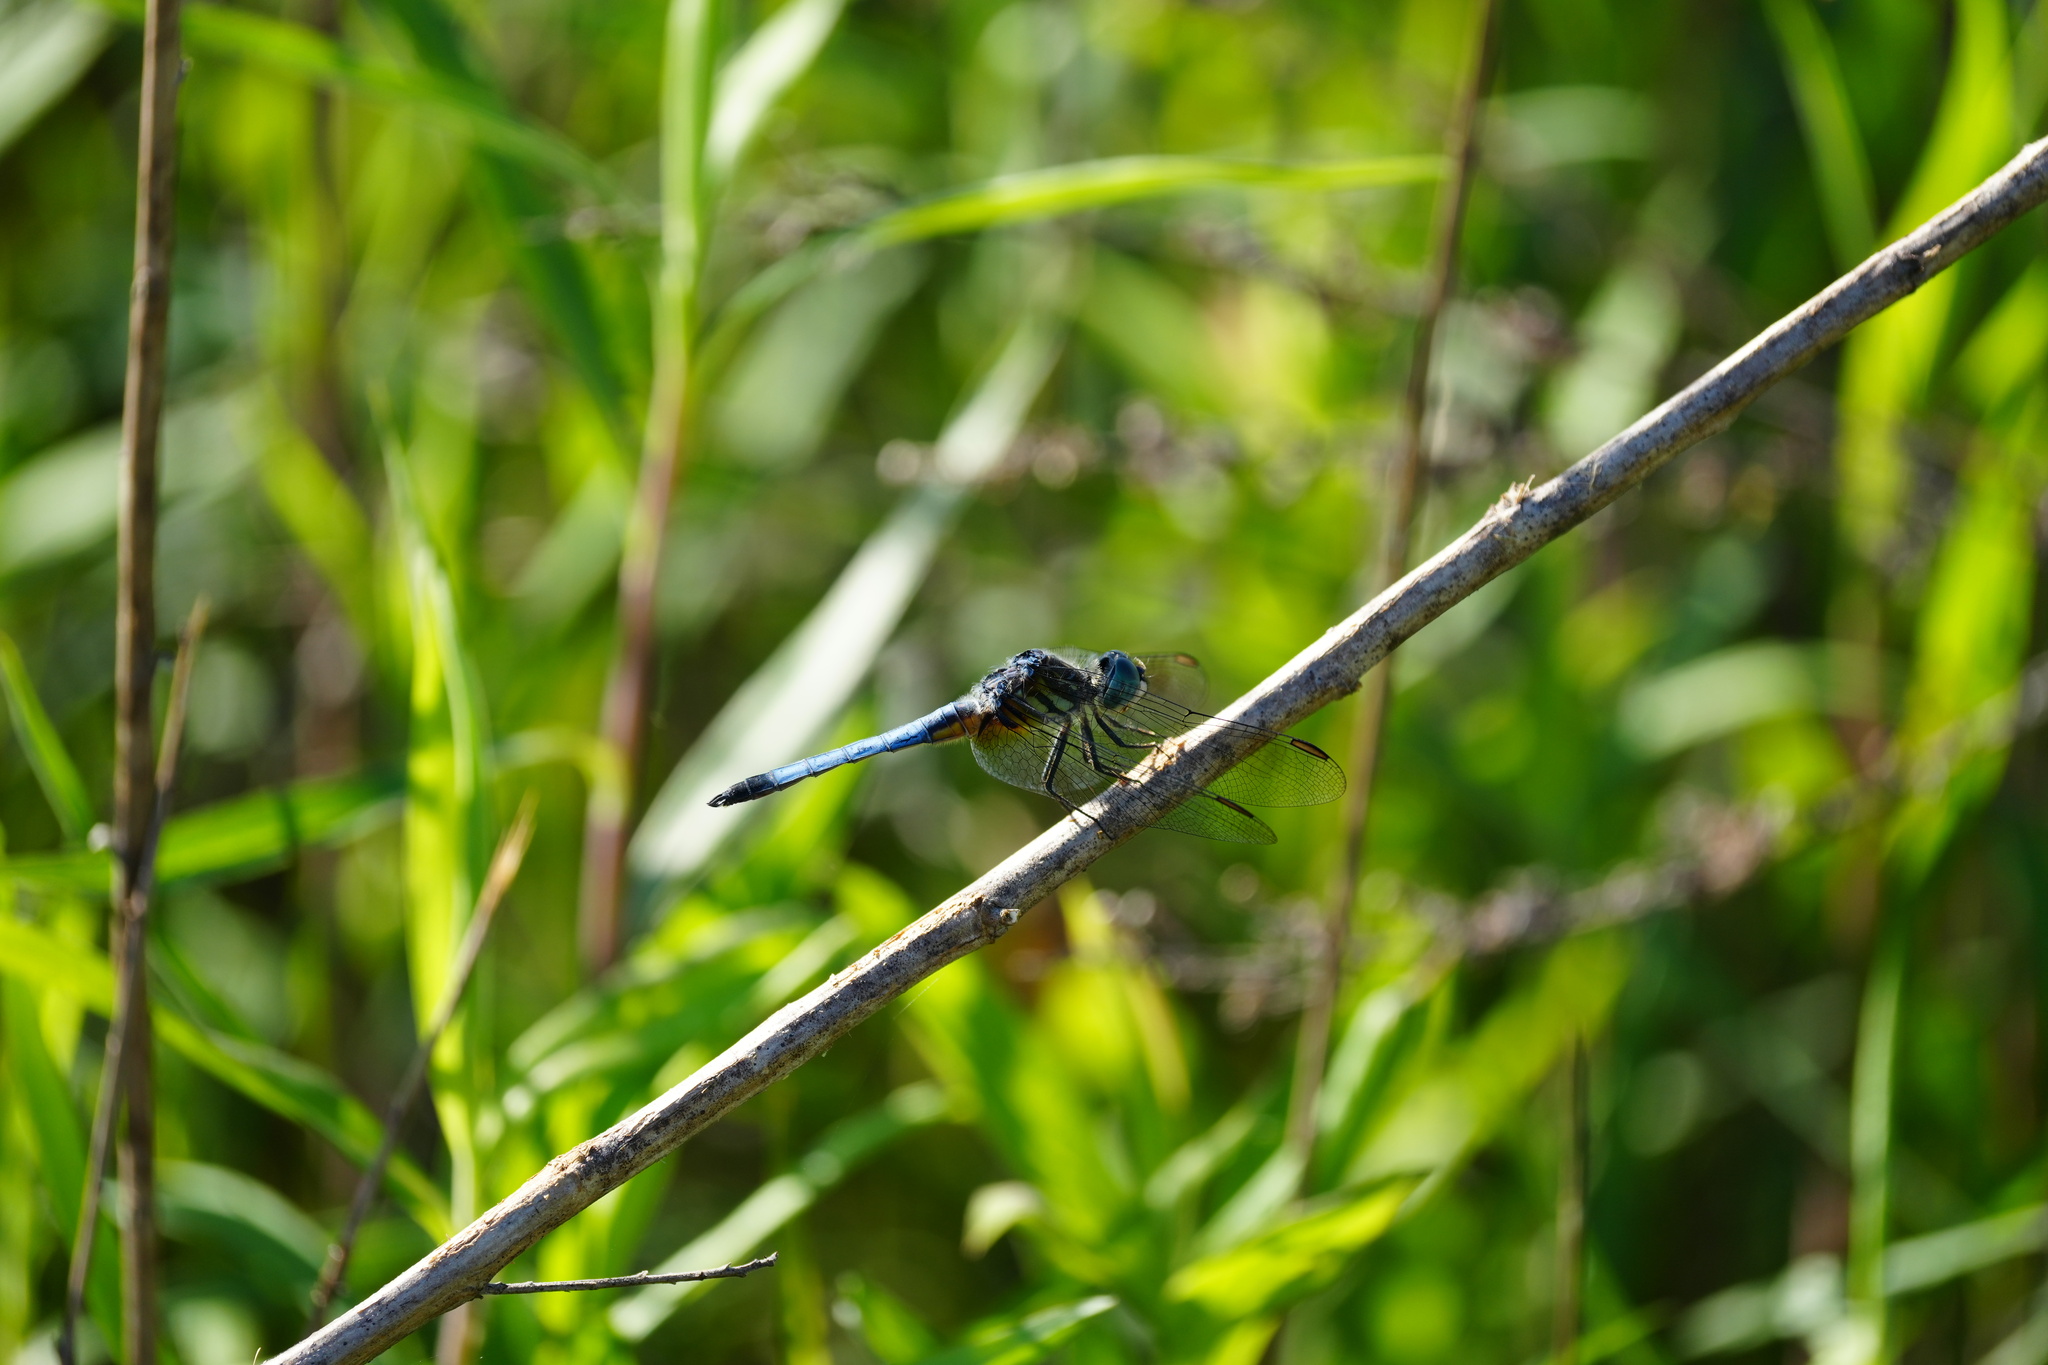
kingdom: Animalia
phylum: Arthropoda
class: Insecta
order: Odonata
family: Libellulidae
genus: Pachydiplax
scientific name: Pachydiplax longipennis
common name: Blue dasher
